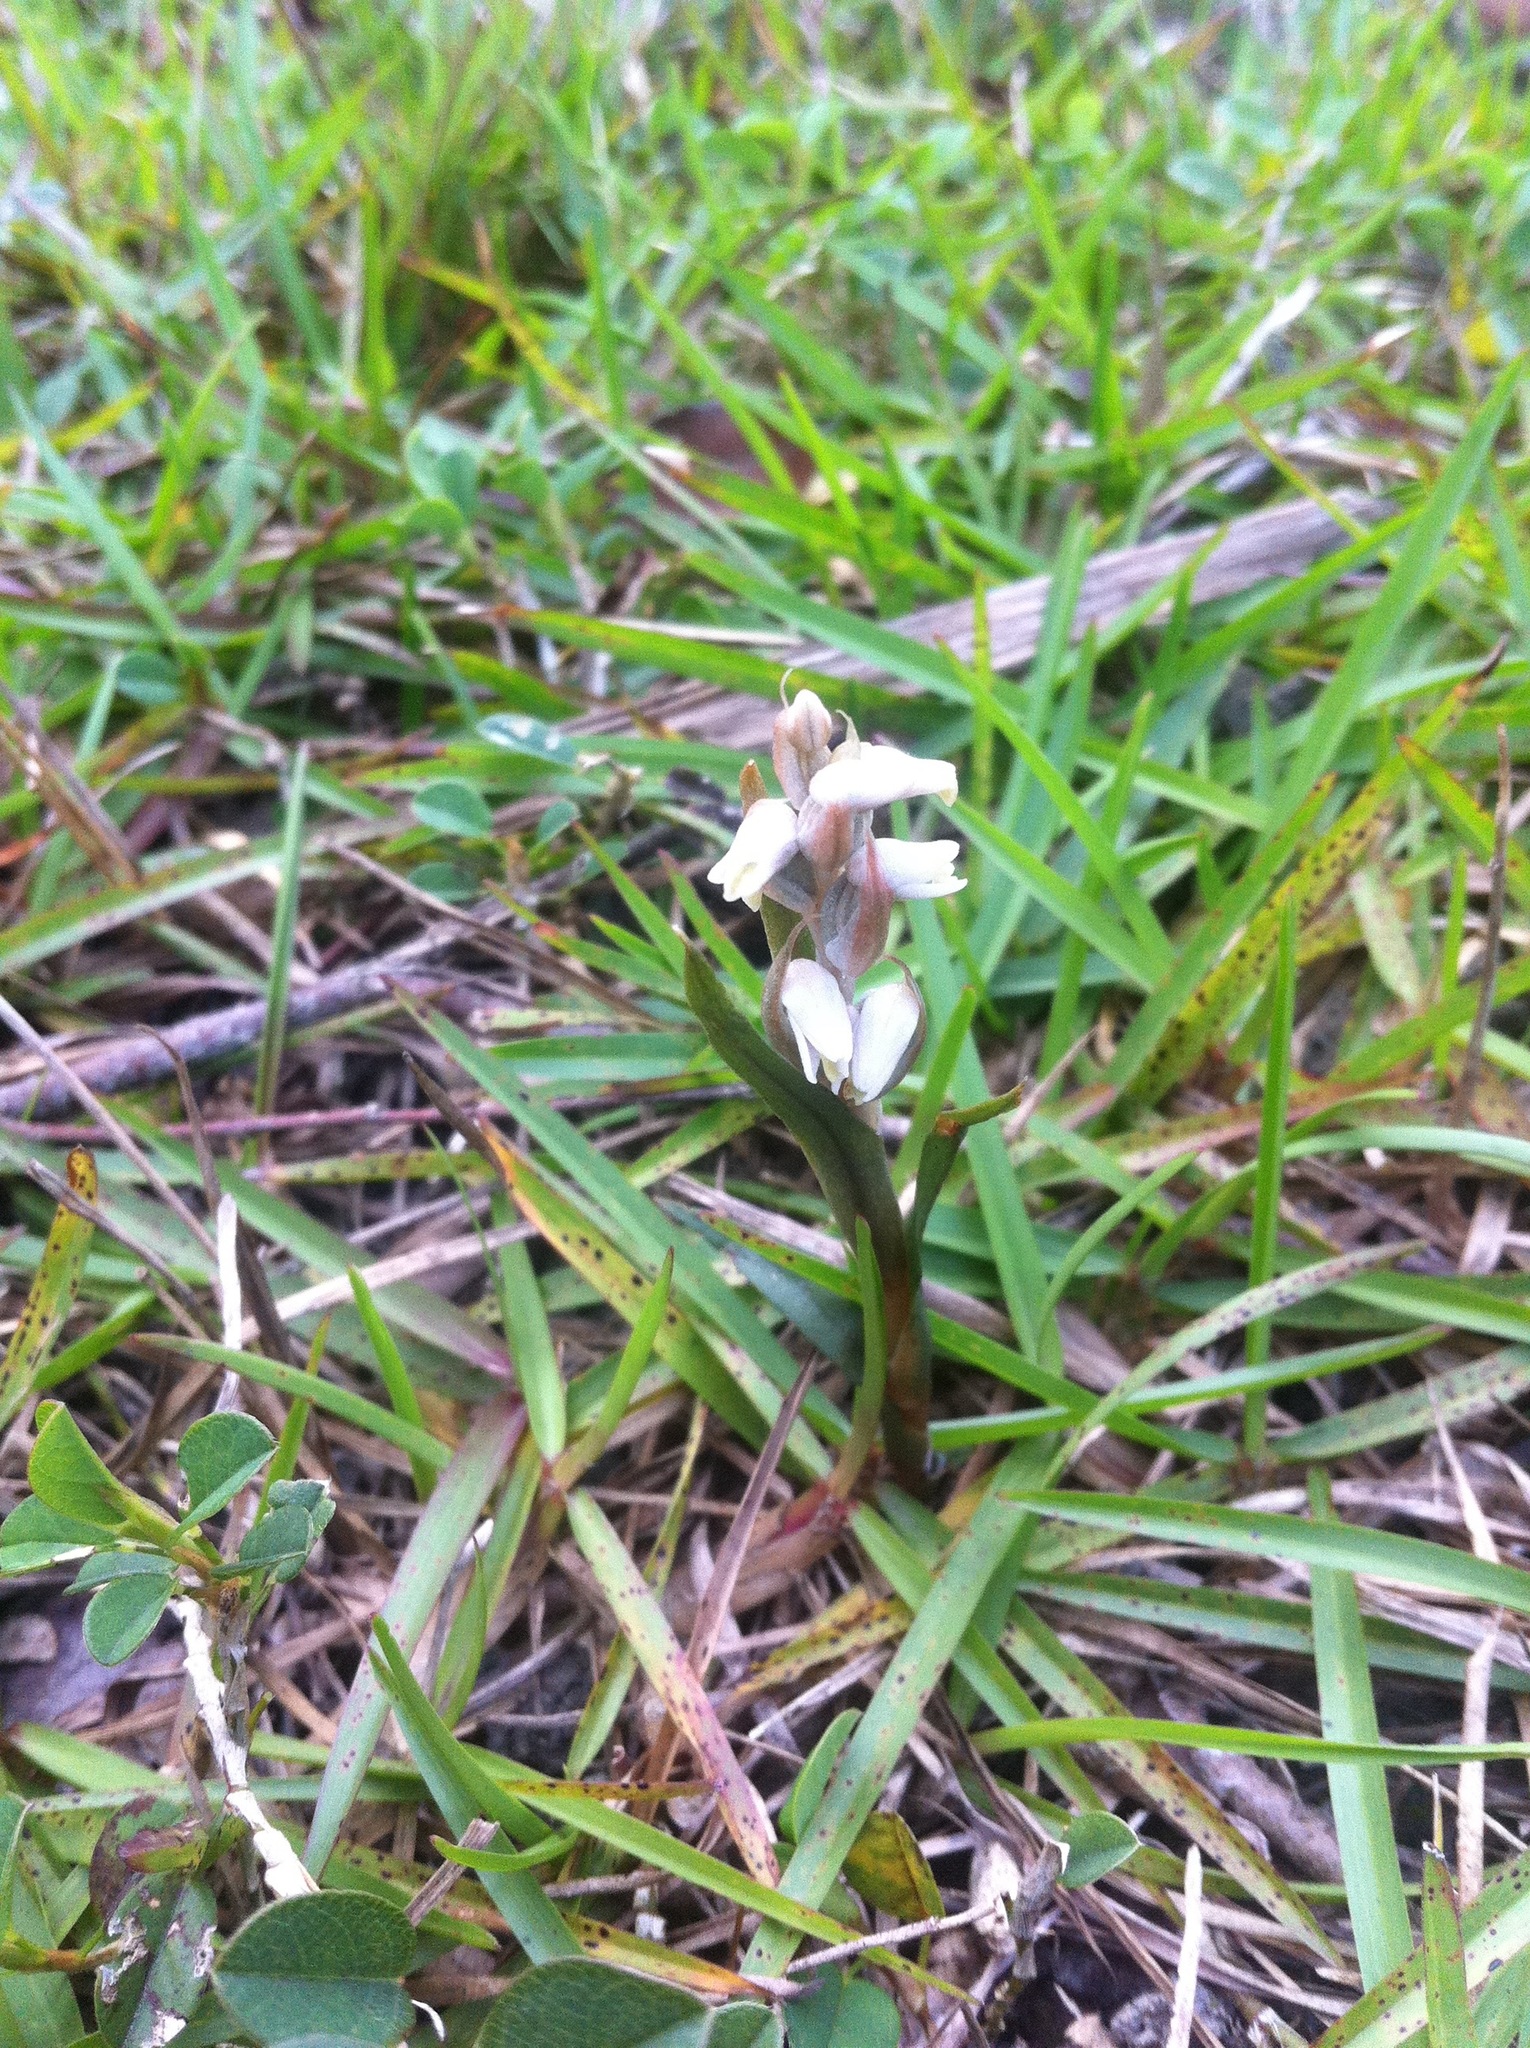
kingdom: Plantae
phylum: Tracheophyta
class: Liliopsida
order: Asparagales
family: Orchidaceae
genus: Zeuxine
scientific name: Zeuxine strateumatica
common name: Soldier's orchid
